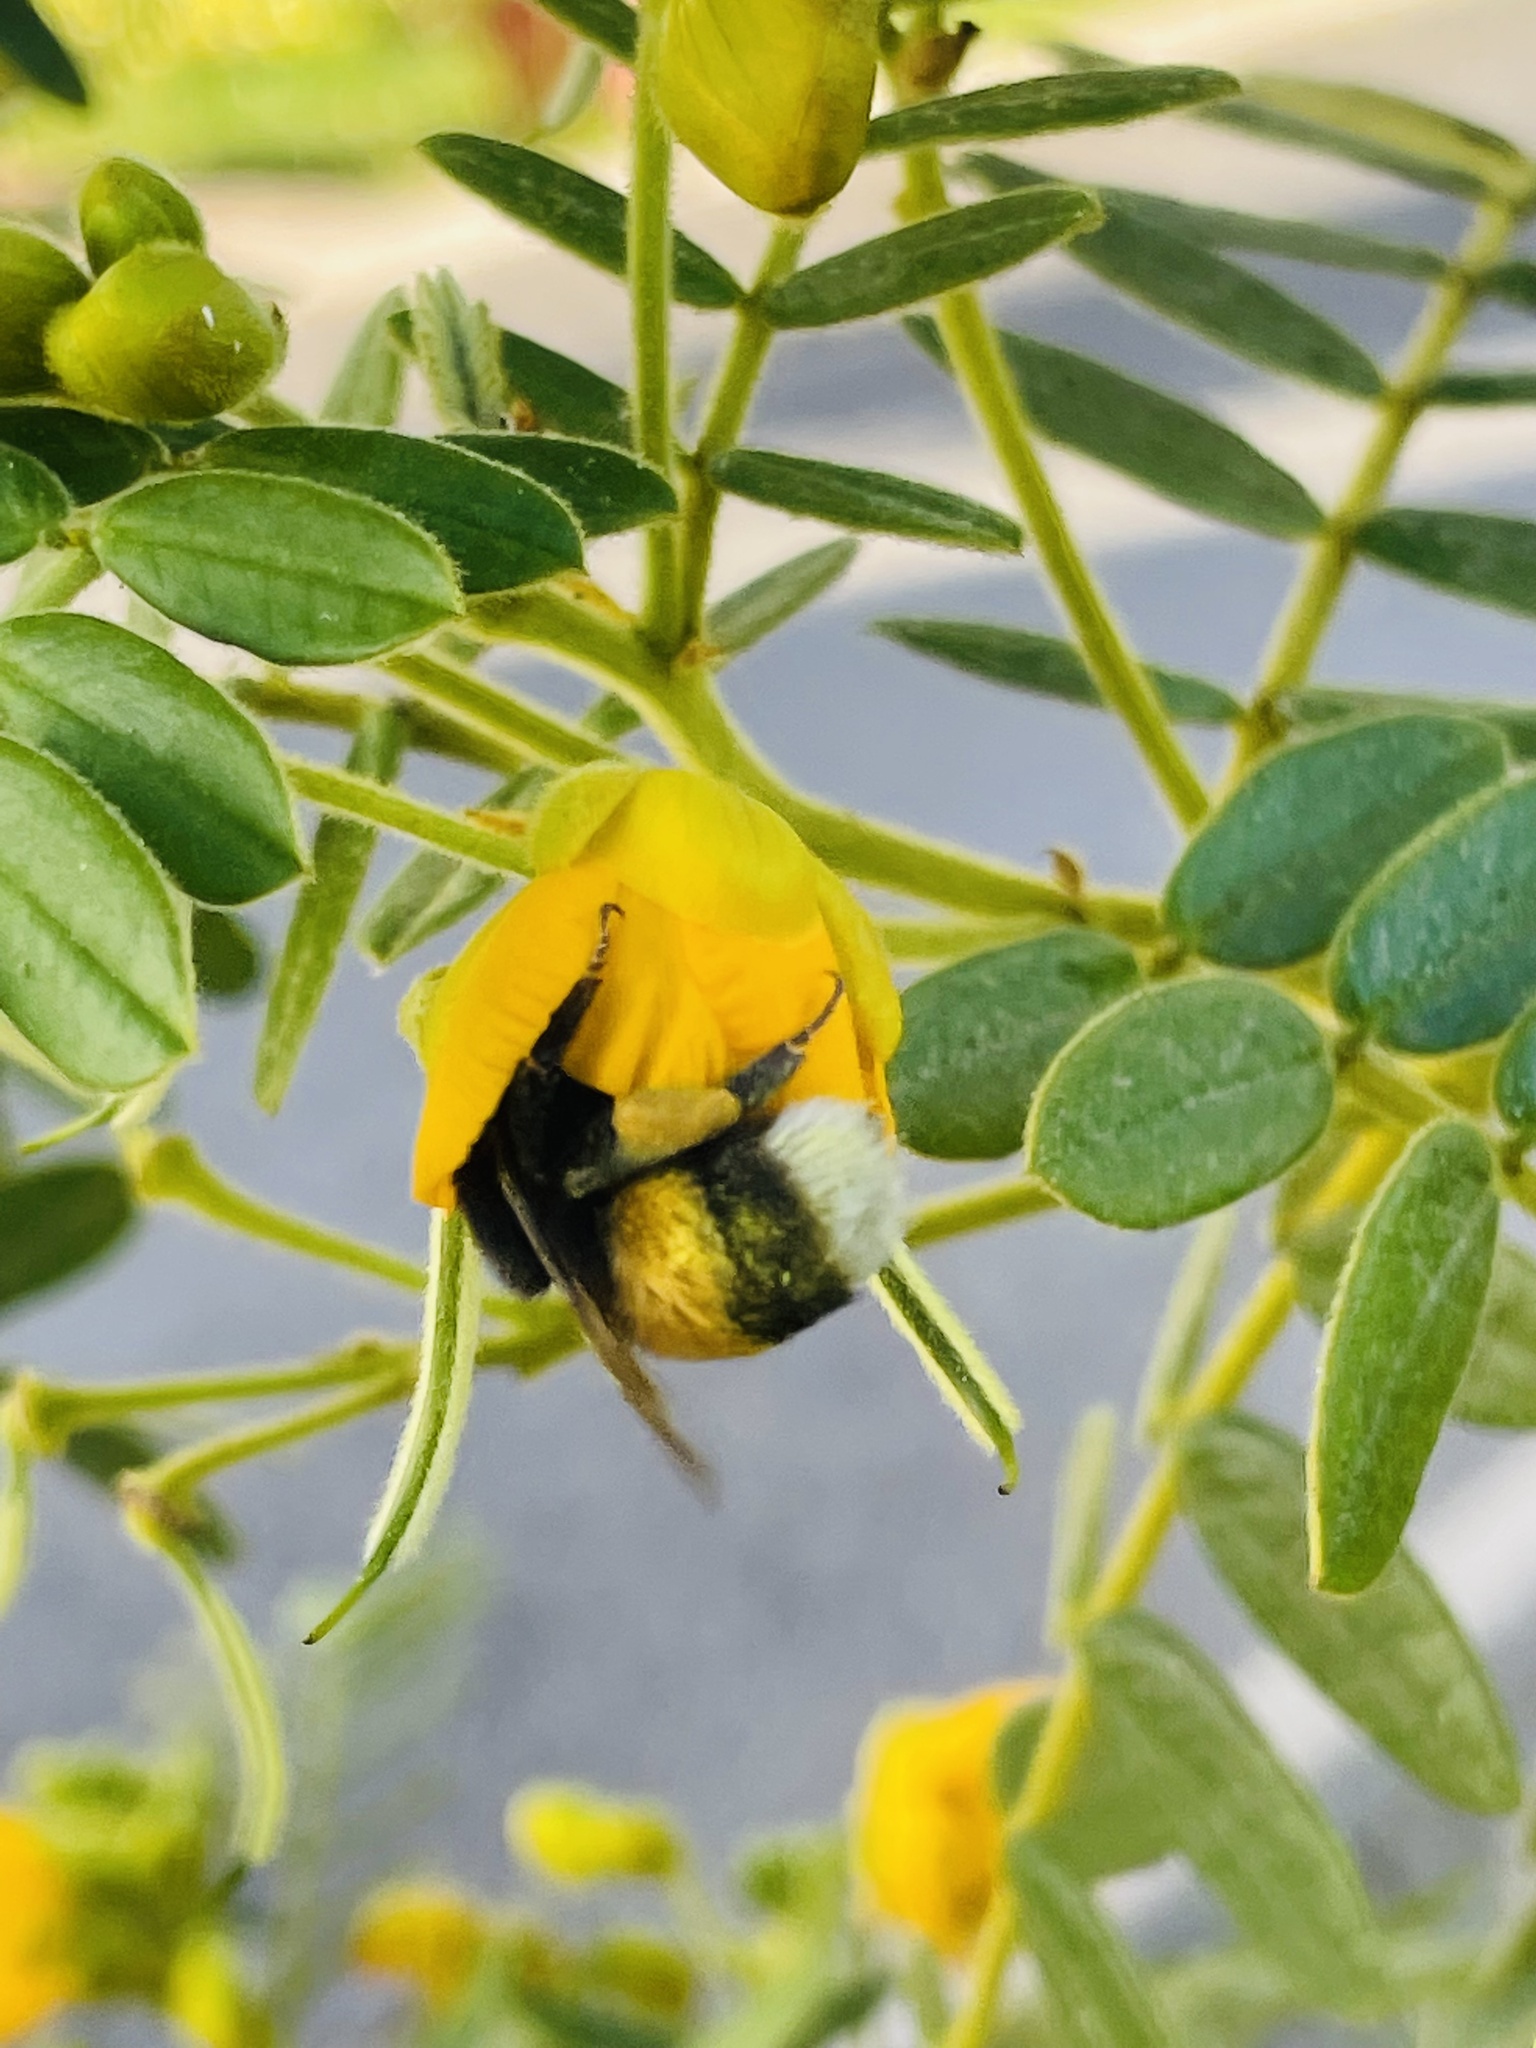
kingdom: Animalia
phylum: Arthropoda
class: Insecta
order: Hymenoptera
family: Apidae
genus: Bombus
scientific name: Bombus terrestris
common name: Buff-tailed bumblebee
